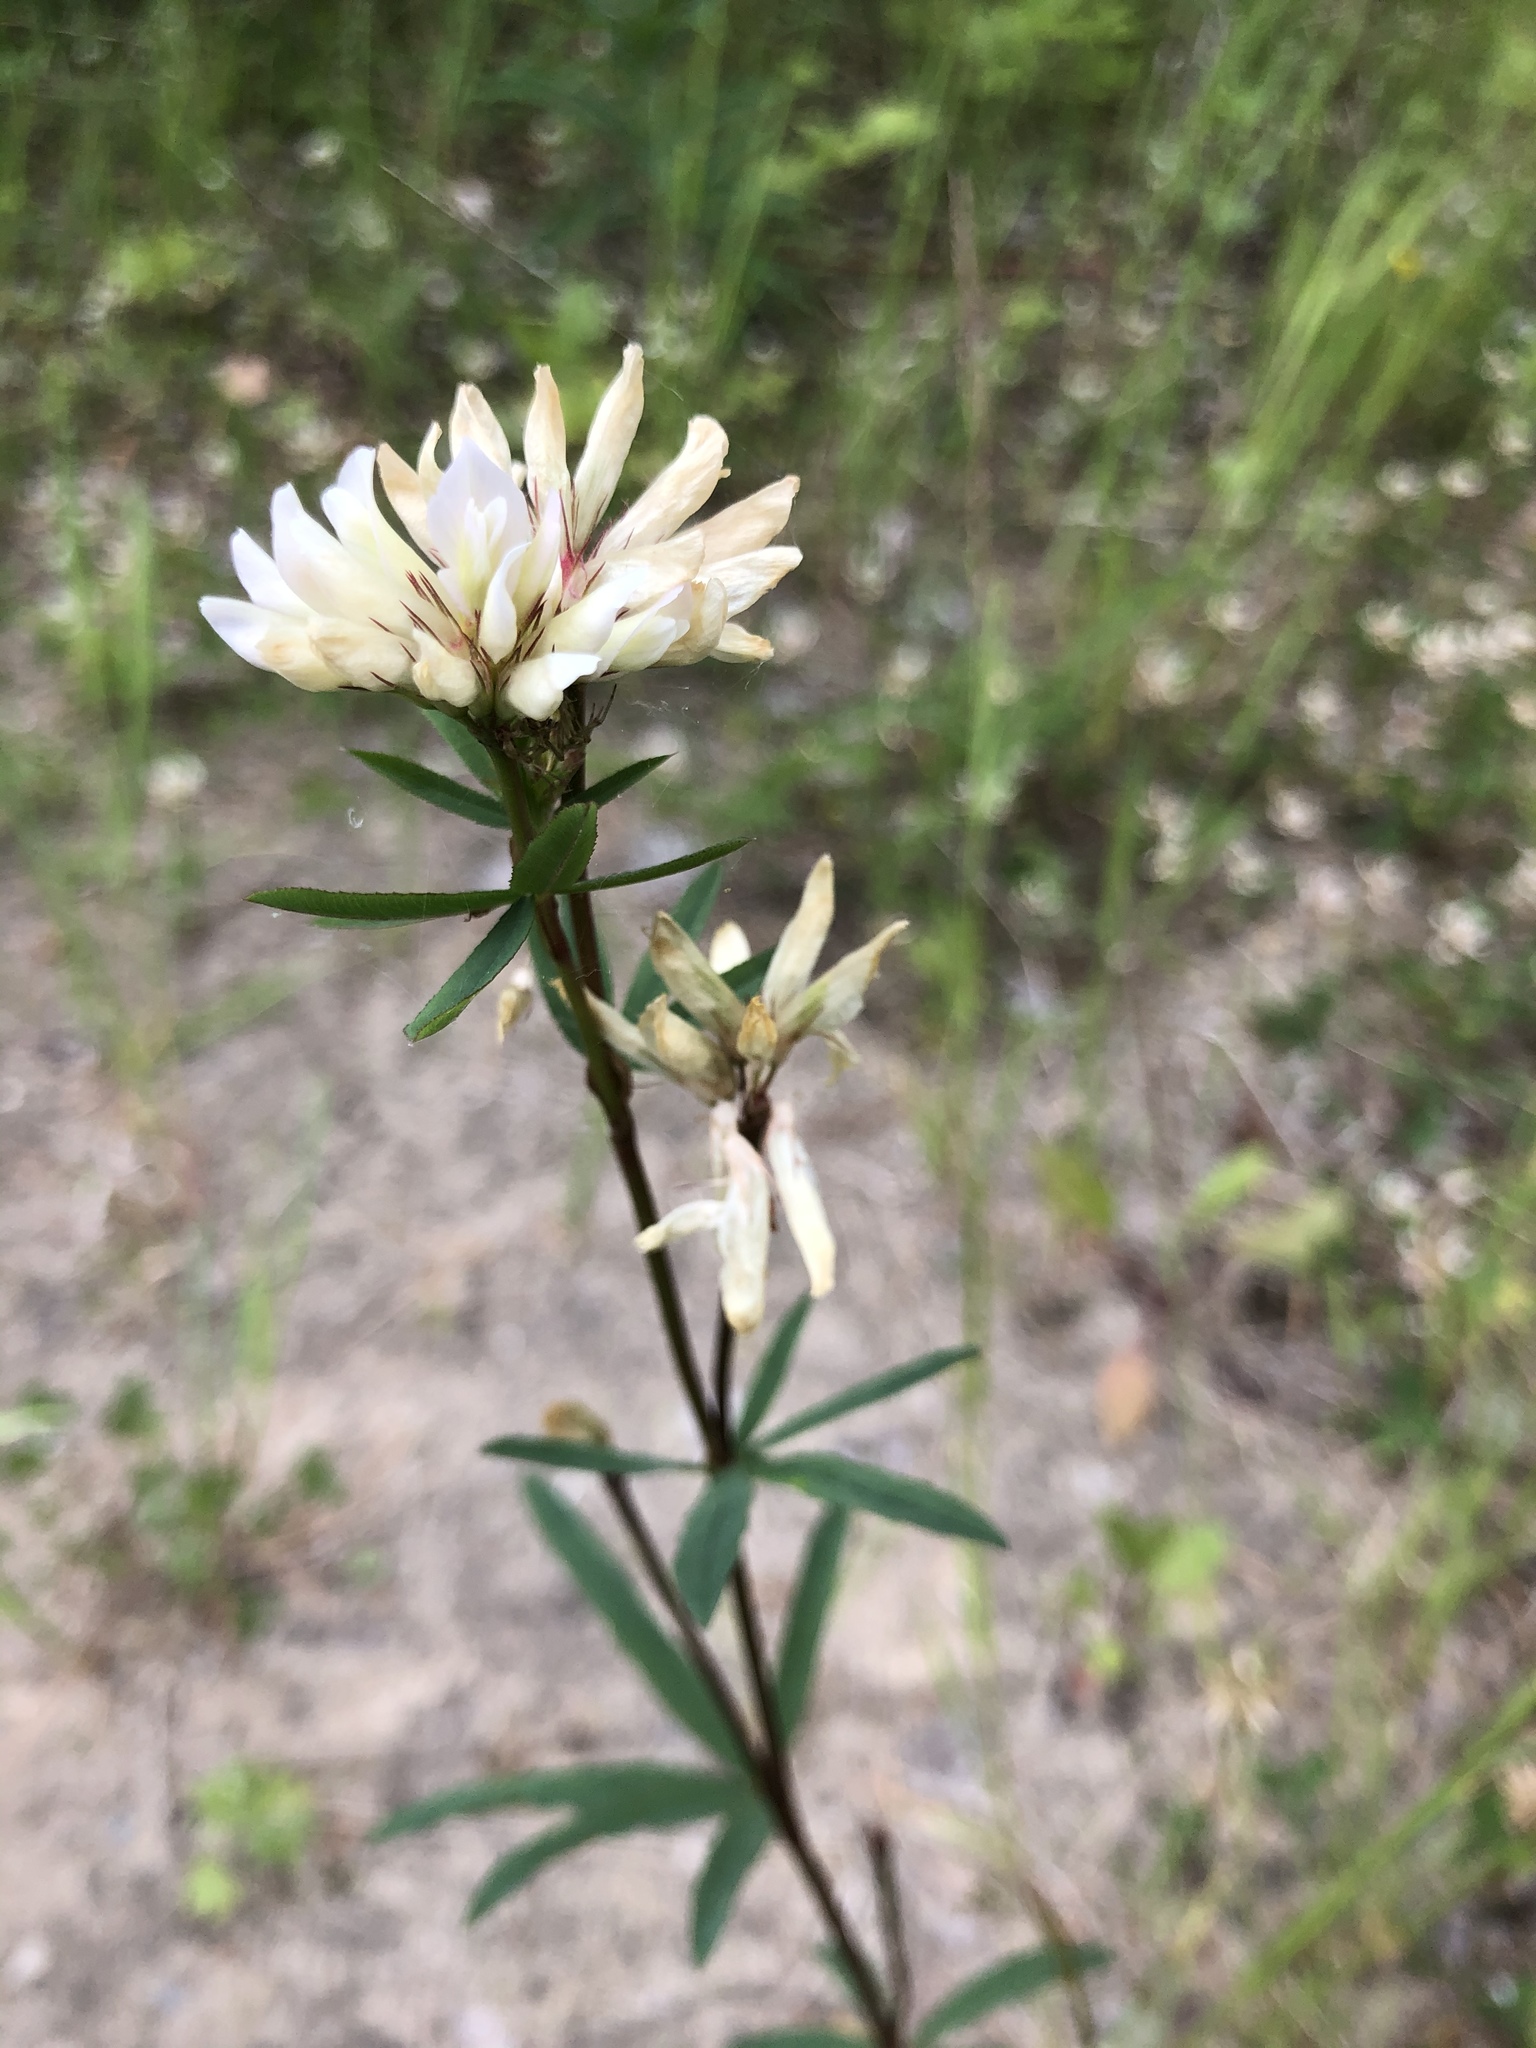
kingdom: Plantae
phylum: Tracheophyta
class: Magnoliopsida
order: Fabales
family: Fabaceae
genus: Trifolium
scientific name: Trifolium lupinaster
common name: Lupine clover
